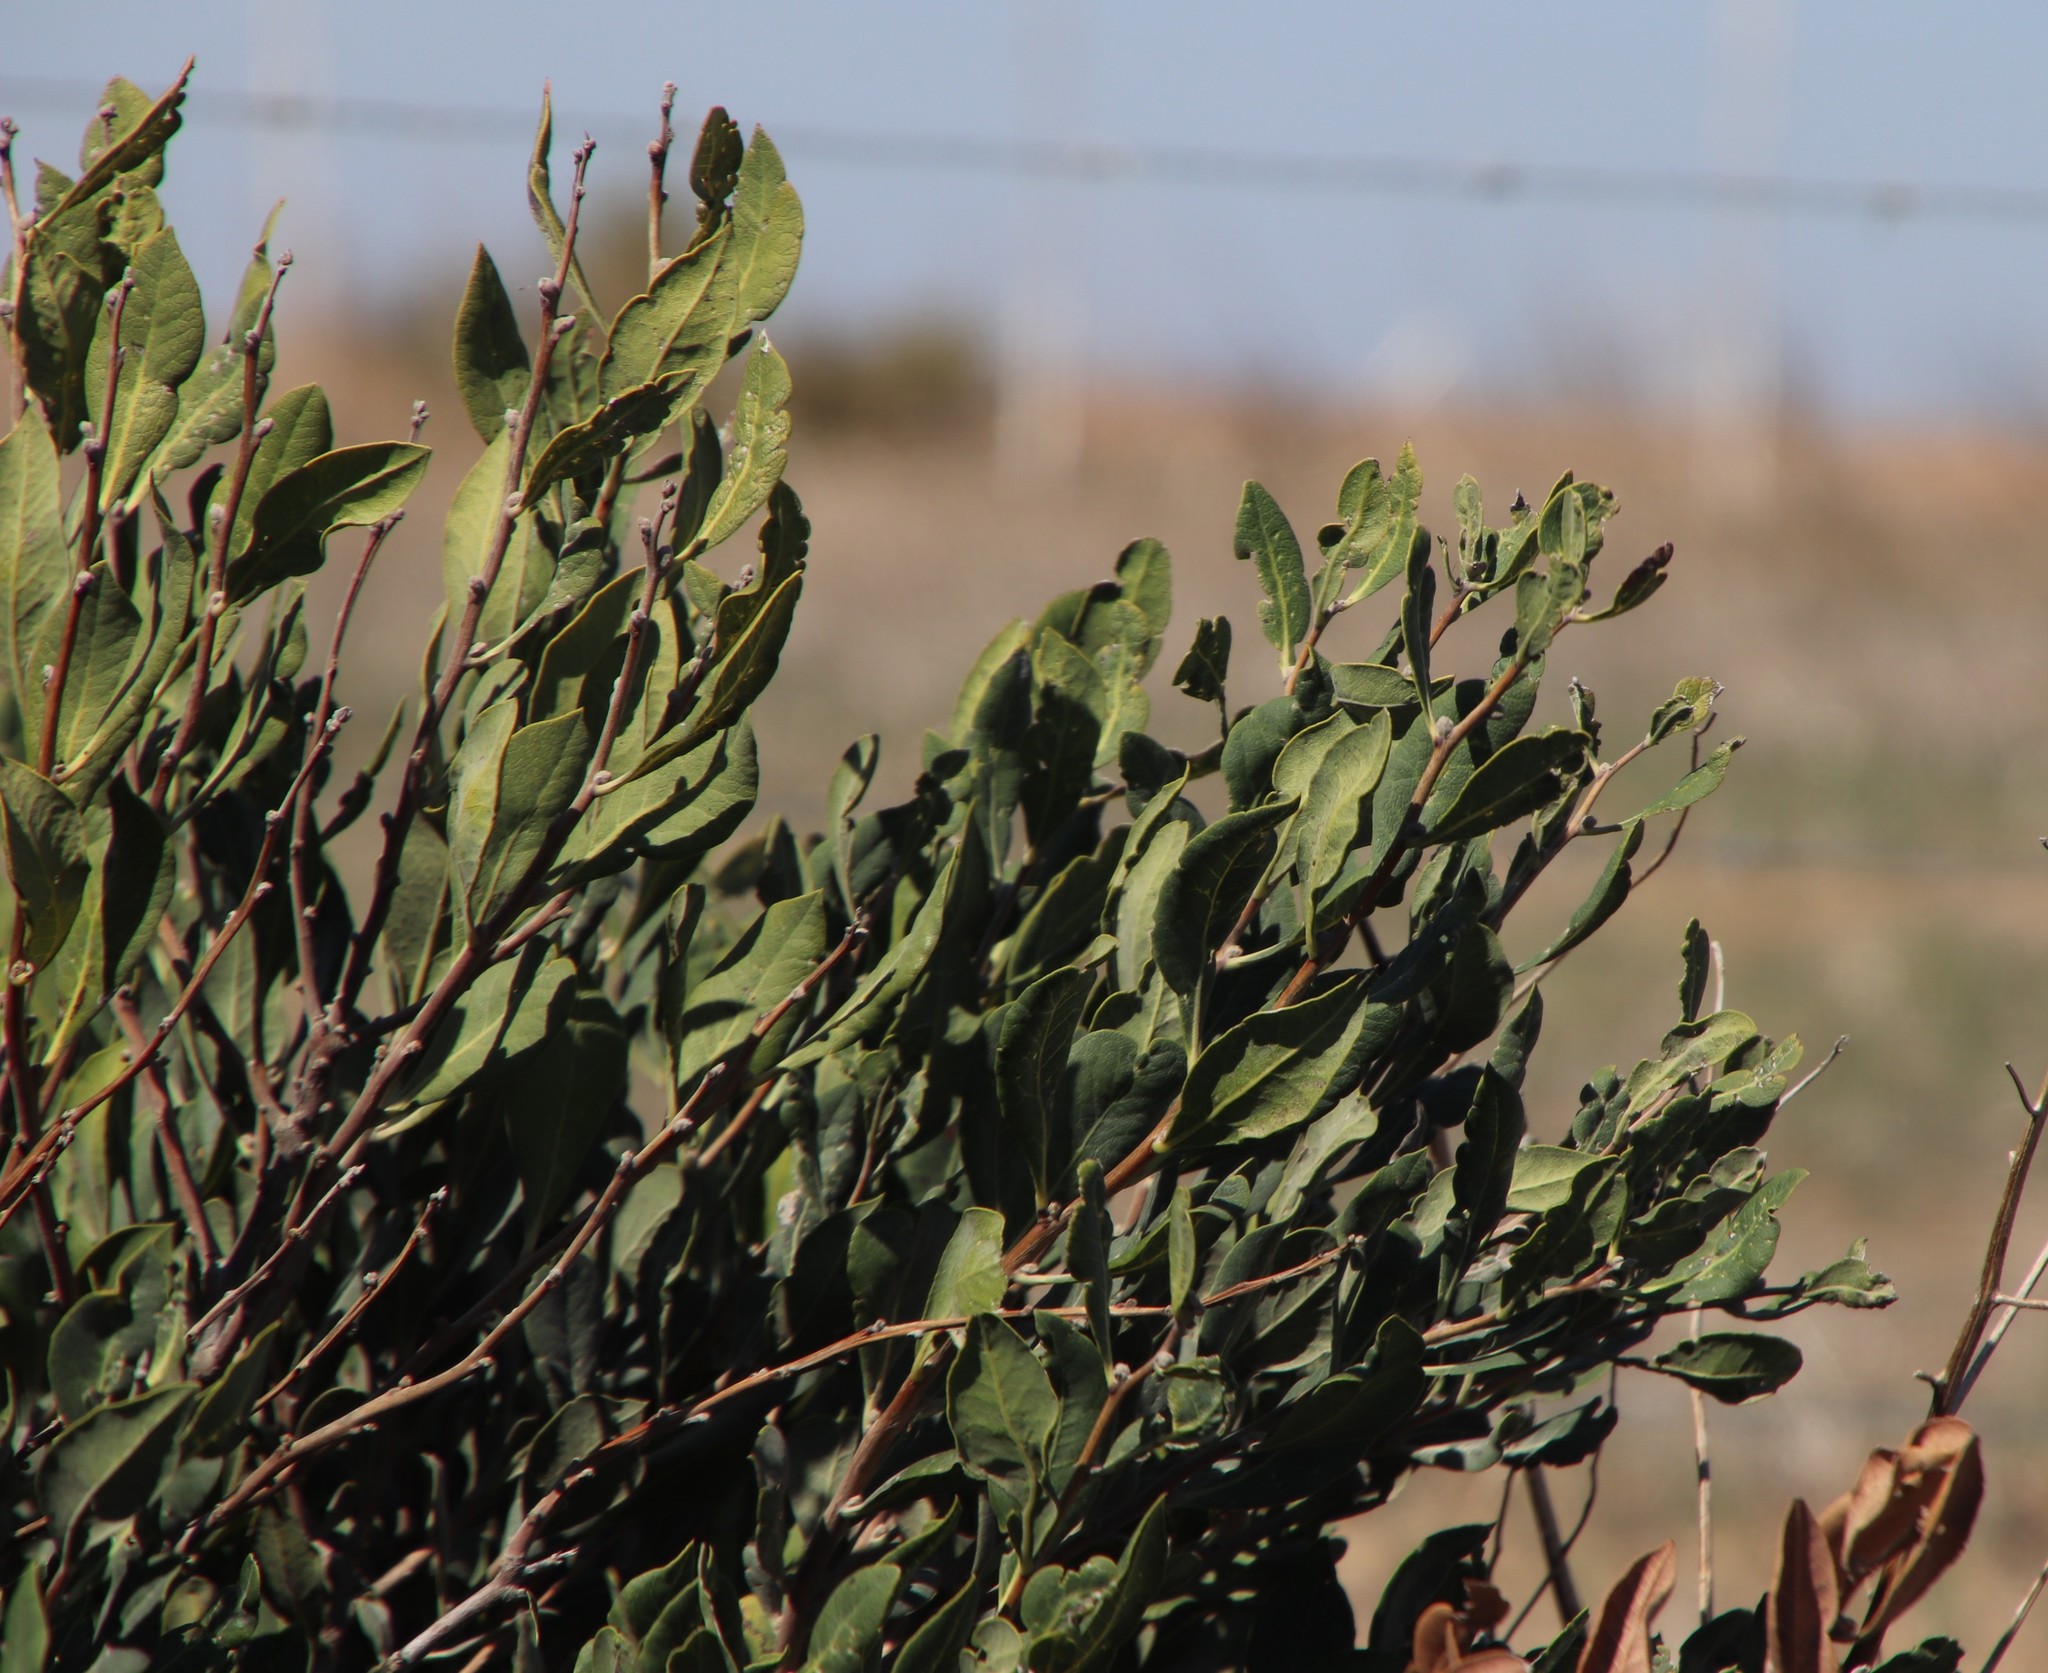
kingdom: Plantae
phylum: Tracheophyta
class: Magnoliopsida
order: Ericales
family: Ebenaceae
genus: Euclea
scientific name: Euclea tomentosa
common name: Honey guarri
